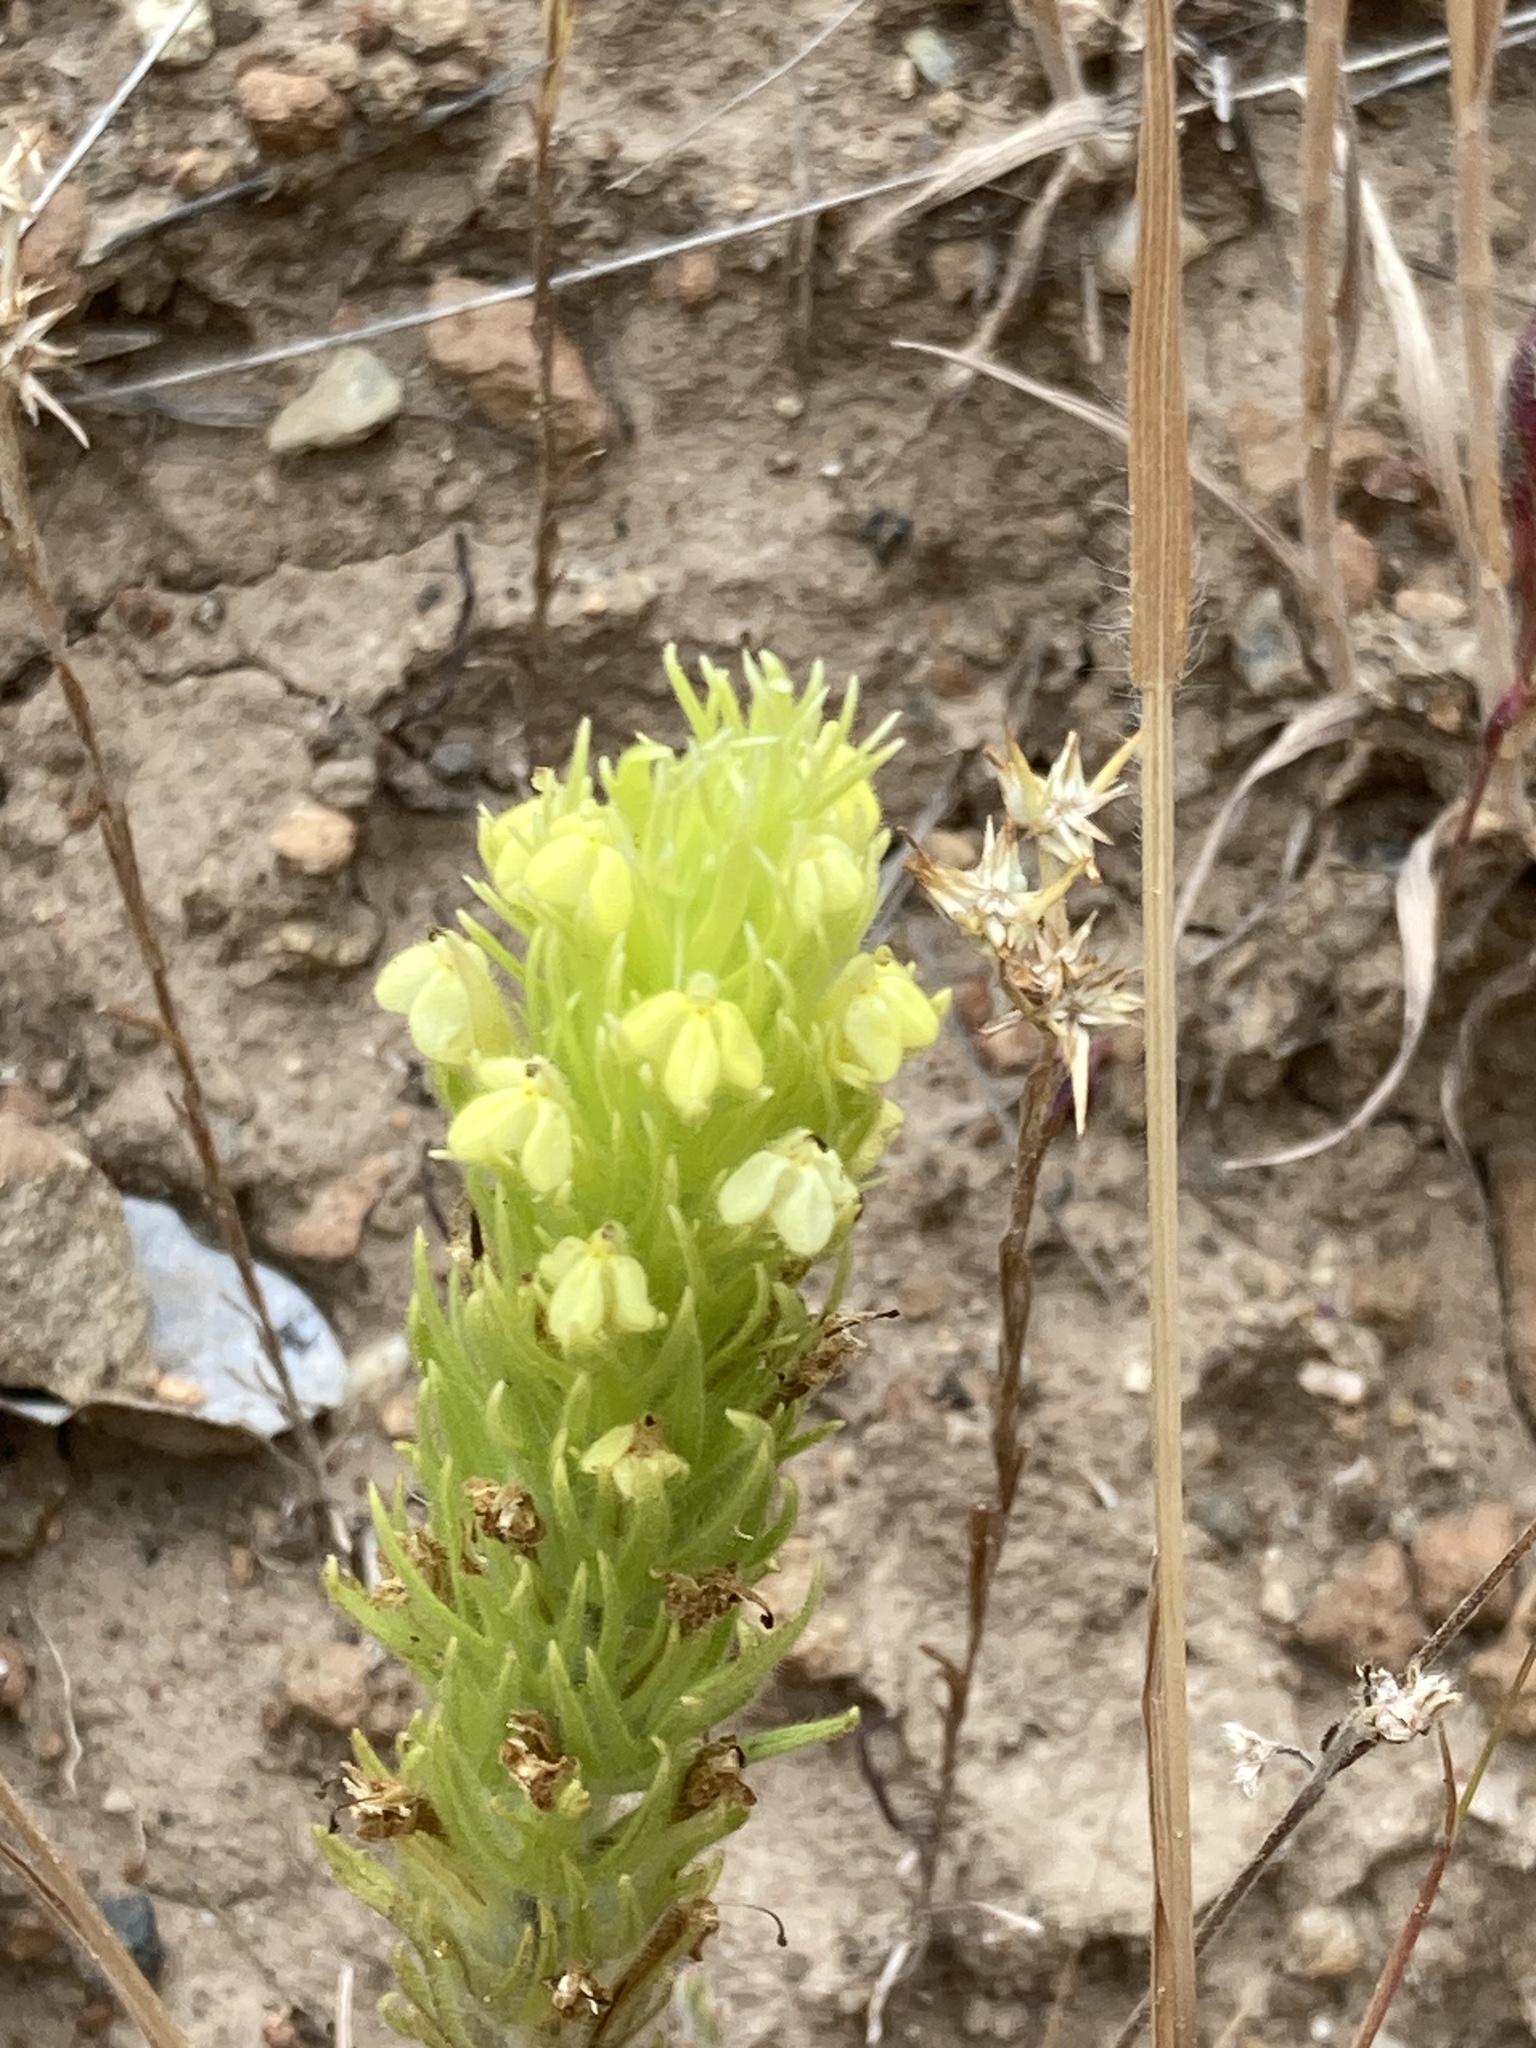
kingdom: Plantae
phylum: Tracheophyta
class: Magnoliopsida
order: Lamiales
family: Orobanchaceae
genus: Castilleja
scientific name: Castilleja lacera
